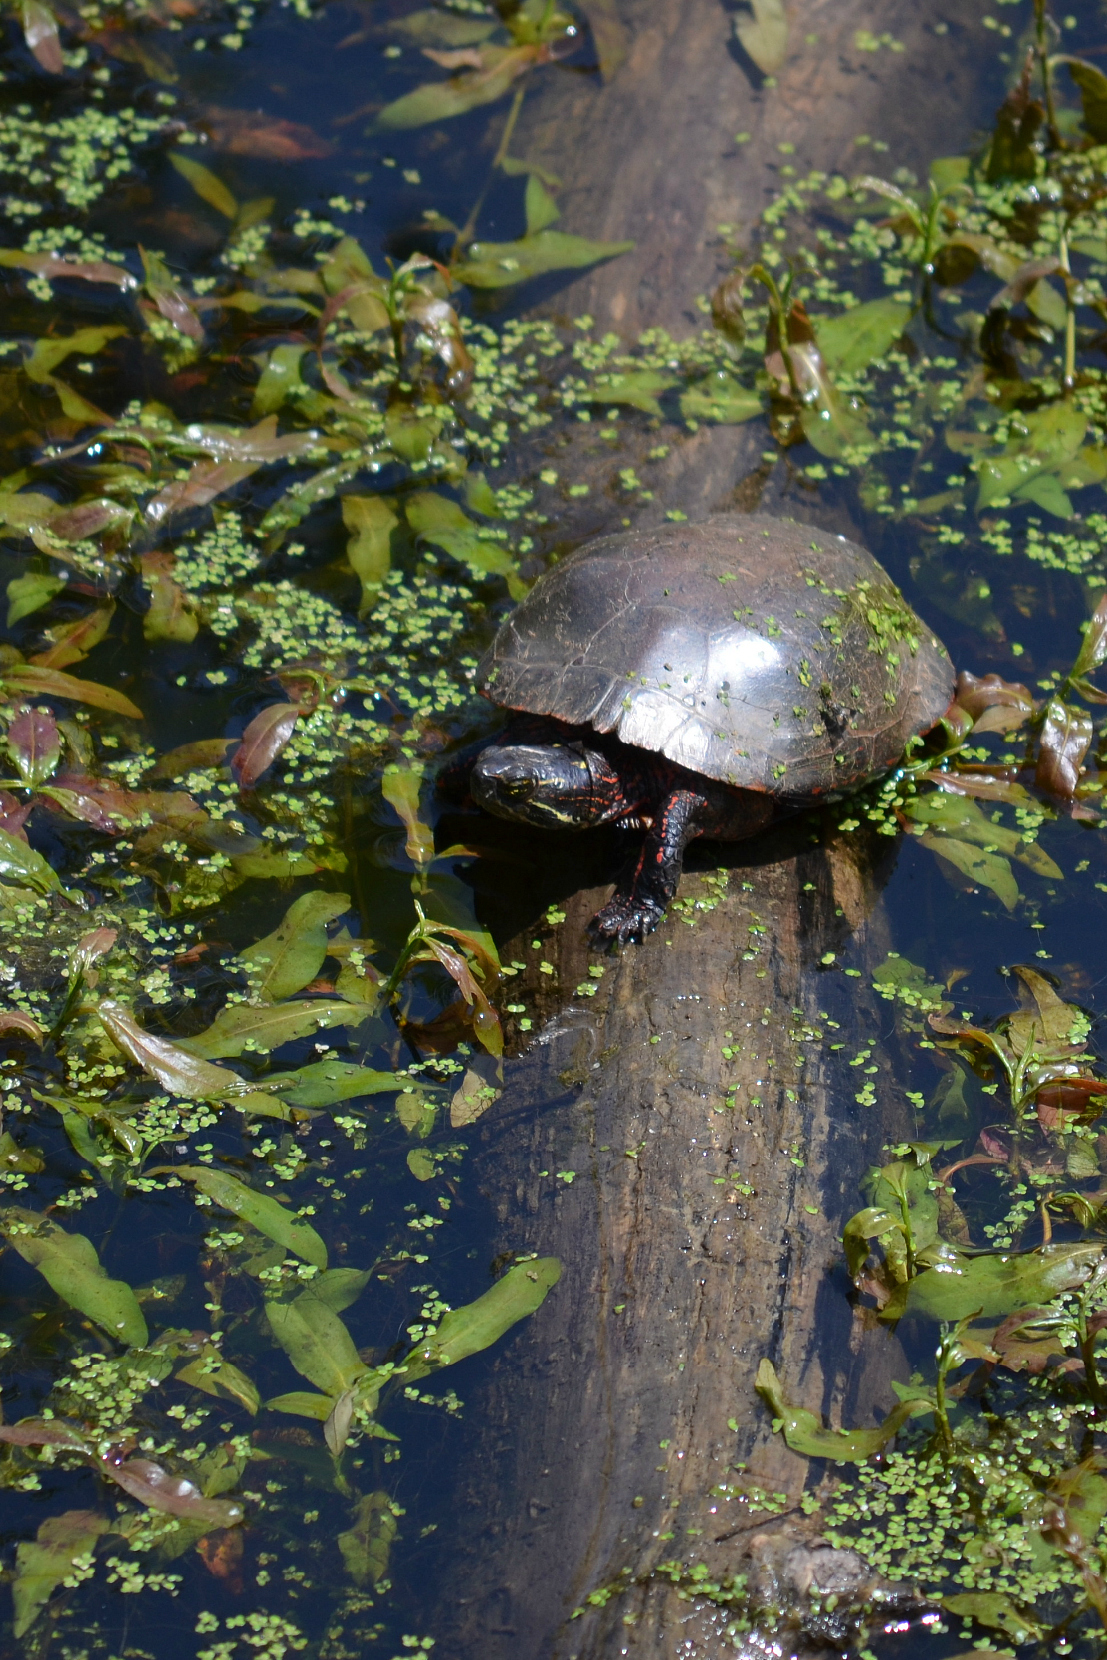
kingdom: Animalia
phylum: Chordata
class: Testudines
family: Emydidae
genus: Chrysemys
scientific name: Chrysemys picta
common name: Painted turtle
